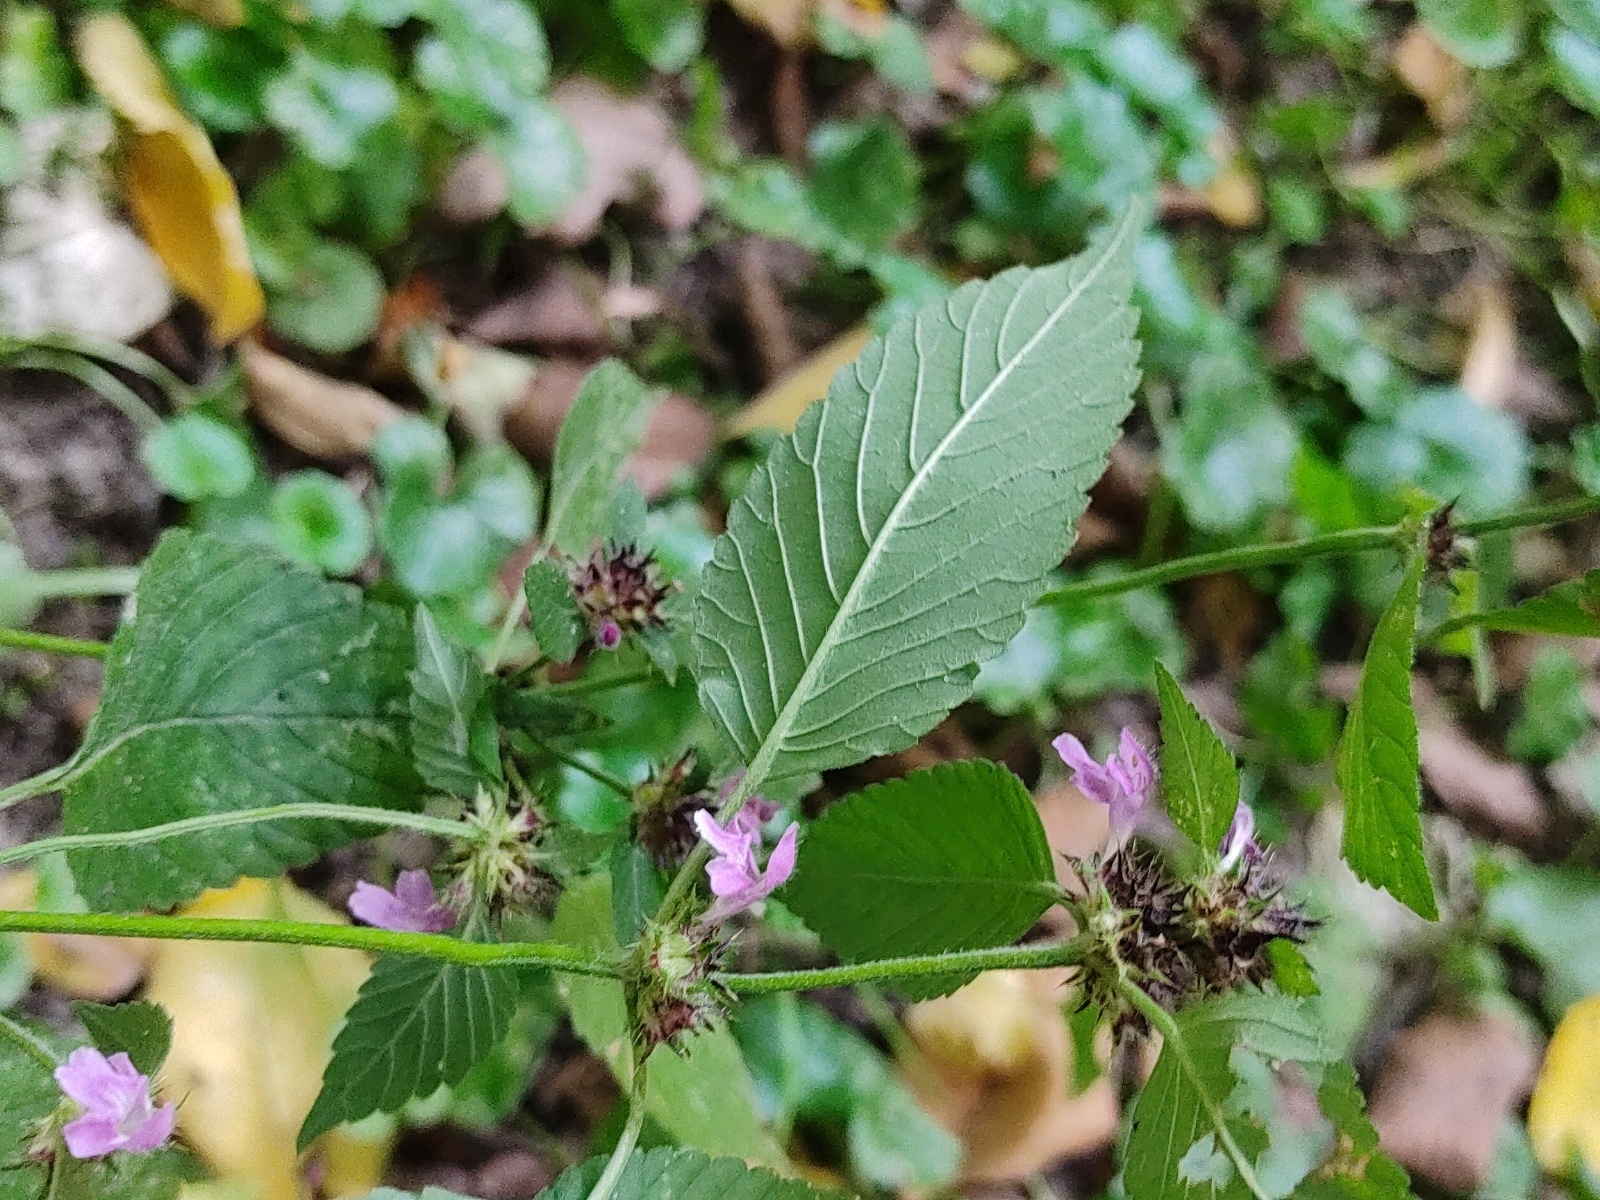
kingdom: Plantae
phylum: Tracheophyta
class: Magnoliopsida
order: Lamiales
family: Lamiaceae
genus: Galeopsis
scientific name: Galeopsis tetrahit
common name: Common hemp-nettle
